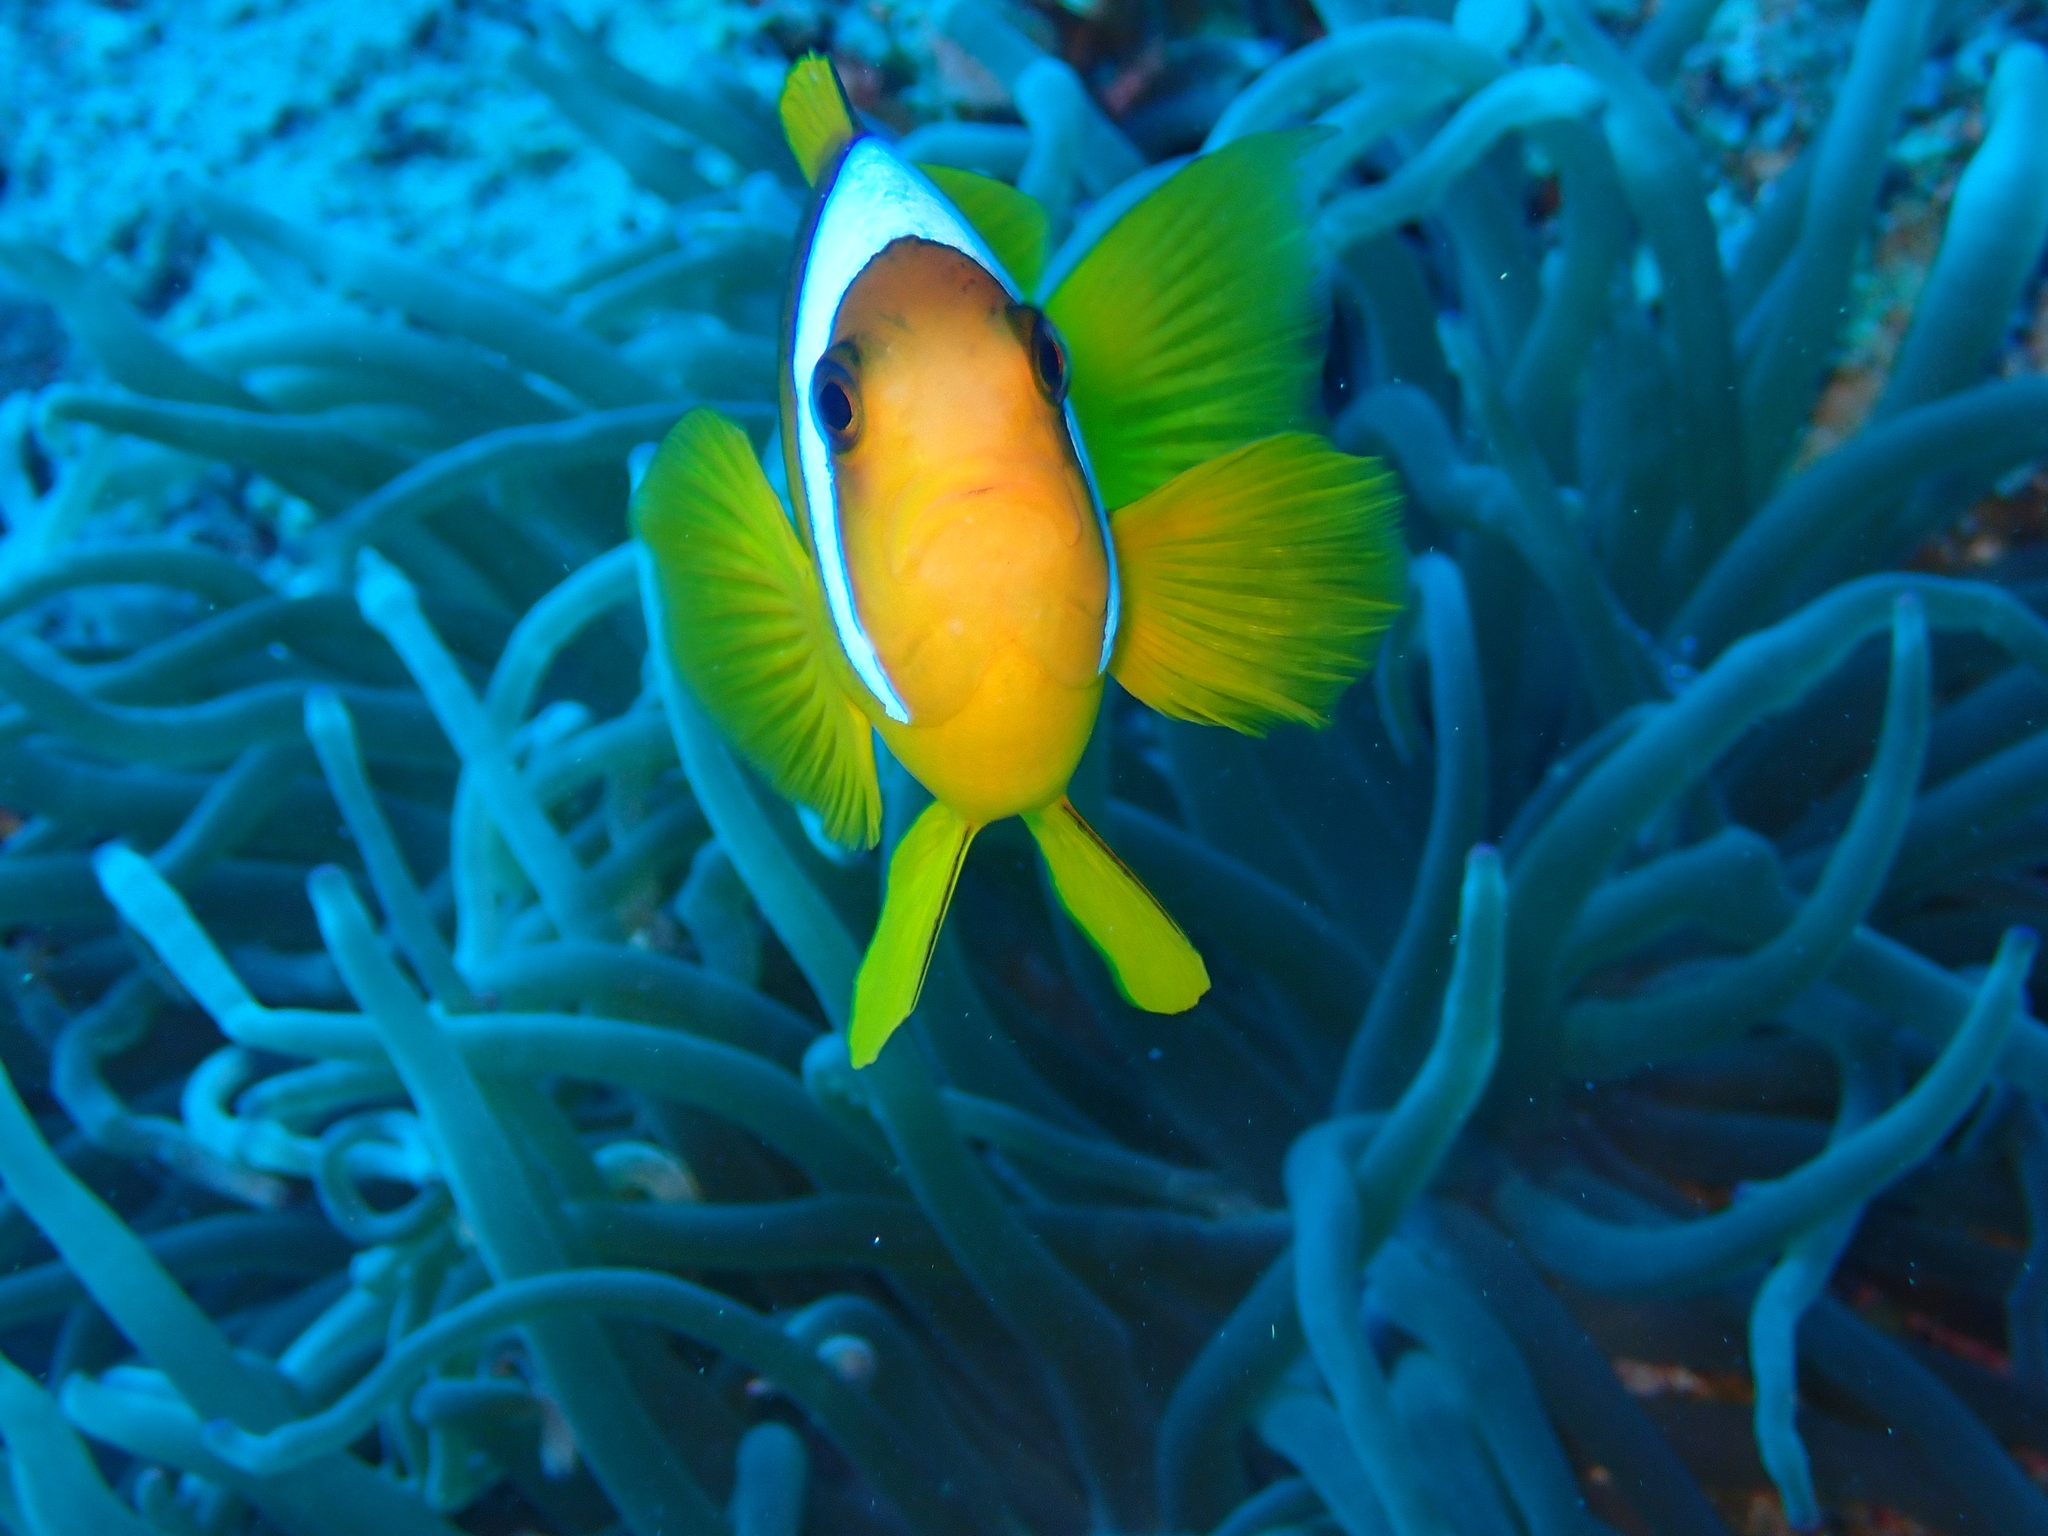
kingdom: Animalia
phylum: Chordata
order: Perciformes
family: Pomacentridae
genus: Amphiprion
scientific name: Amphiprion bicinctus
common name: Two-banded anemonefish
